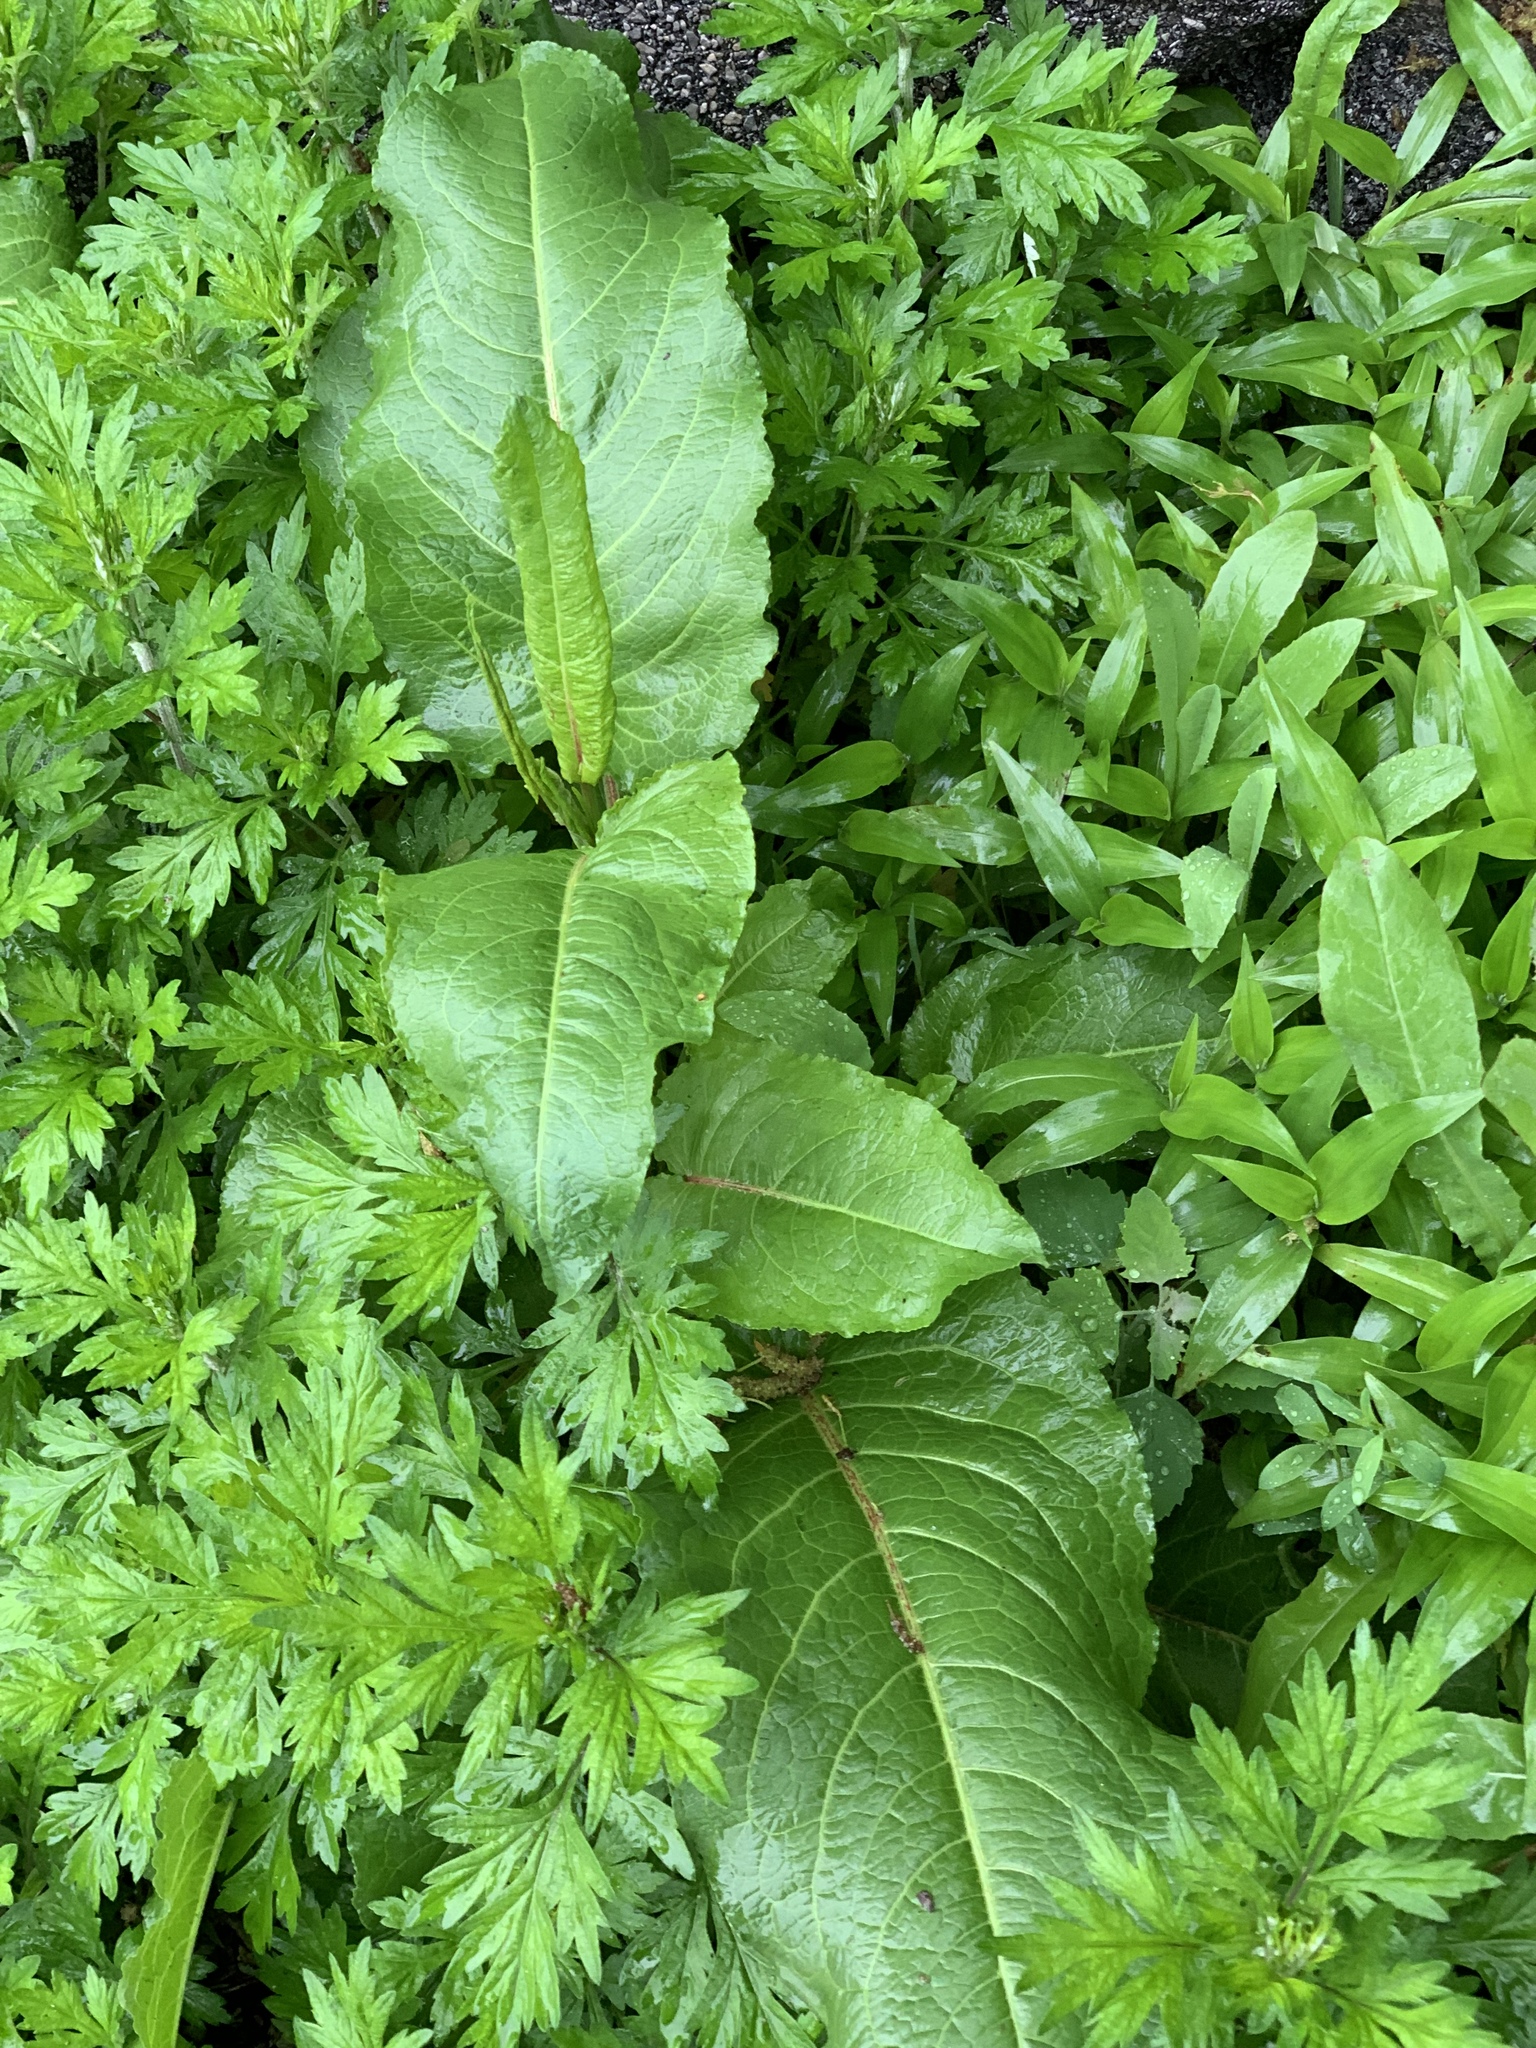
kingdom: Plantae
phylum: Tracheophyta
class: Magnoliopsida
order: Caryophyllales
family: Polygonaceae
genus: Rumex
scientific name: Rumex obtusifolius
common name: Bitter dock
